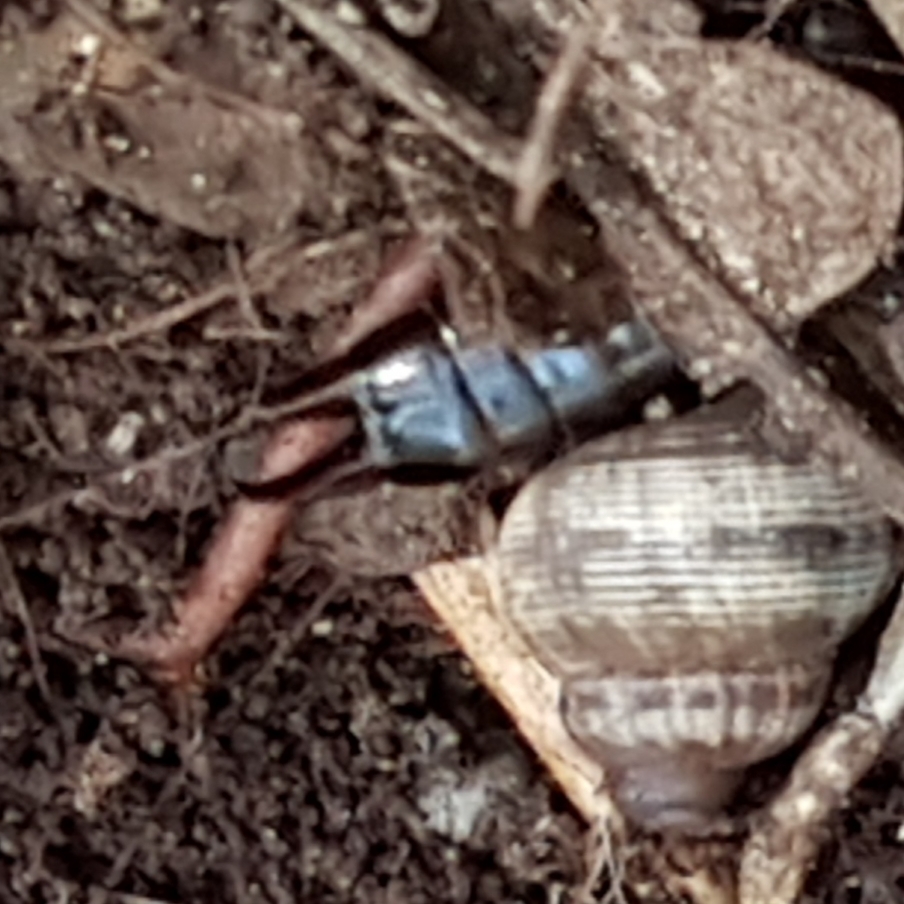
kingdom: Animalia
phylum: Arthropoda
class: Insecta
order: Dermaptera
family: Anisolabididae
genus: Euborellia
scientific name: Euborellia moesta
